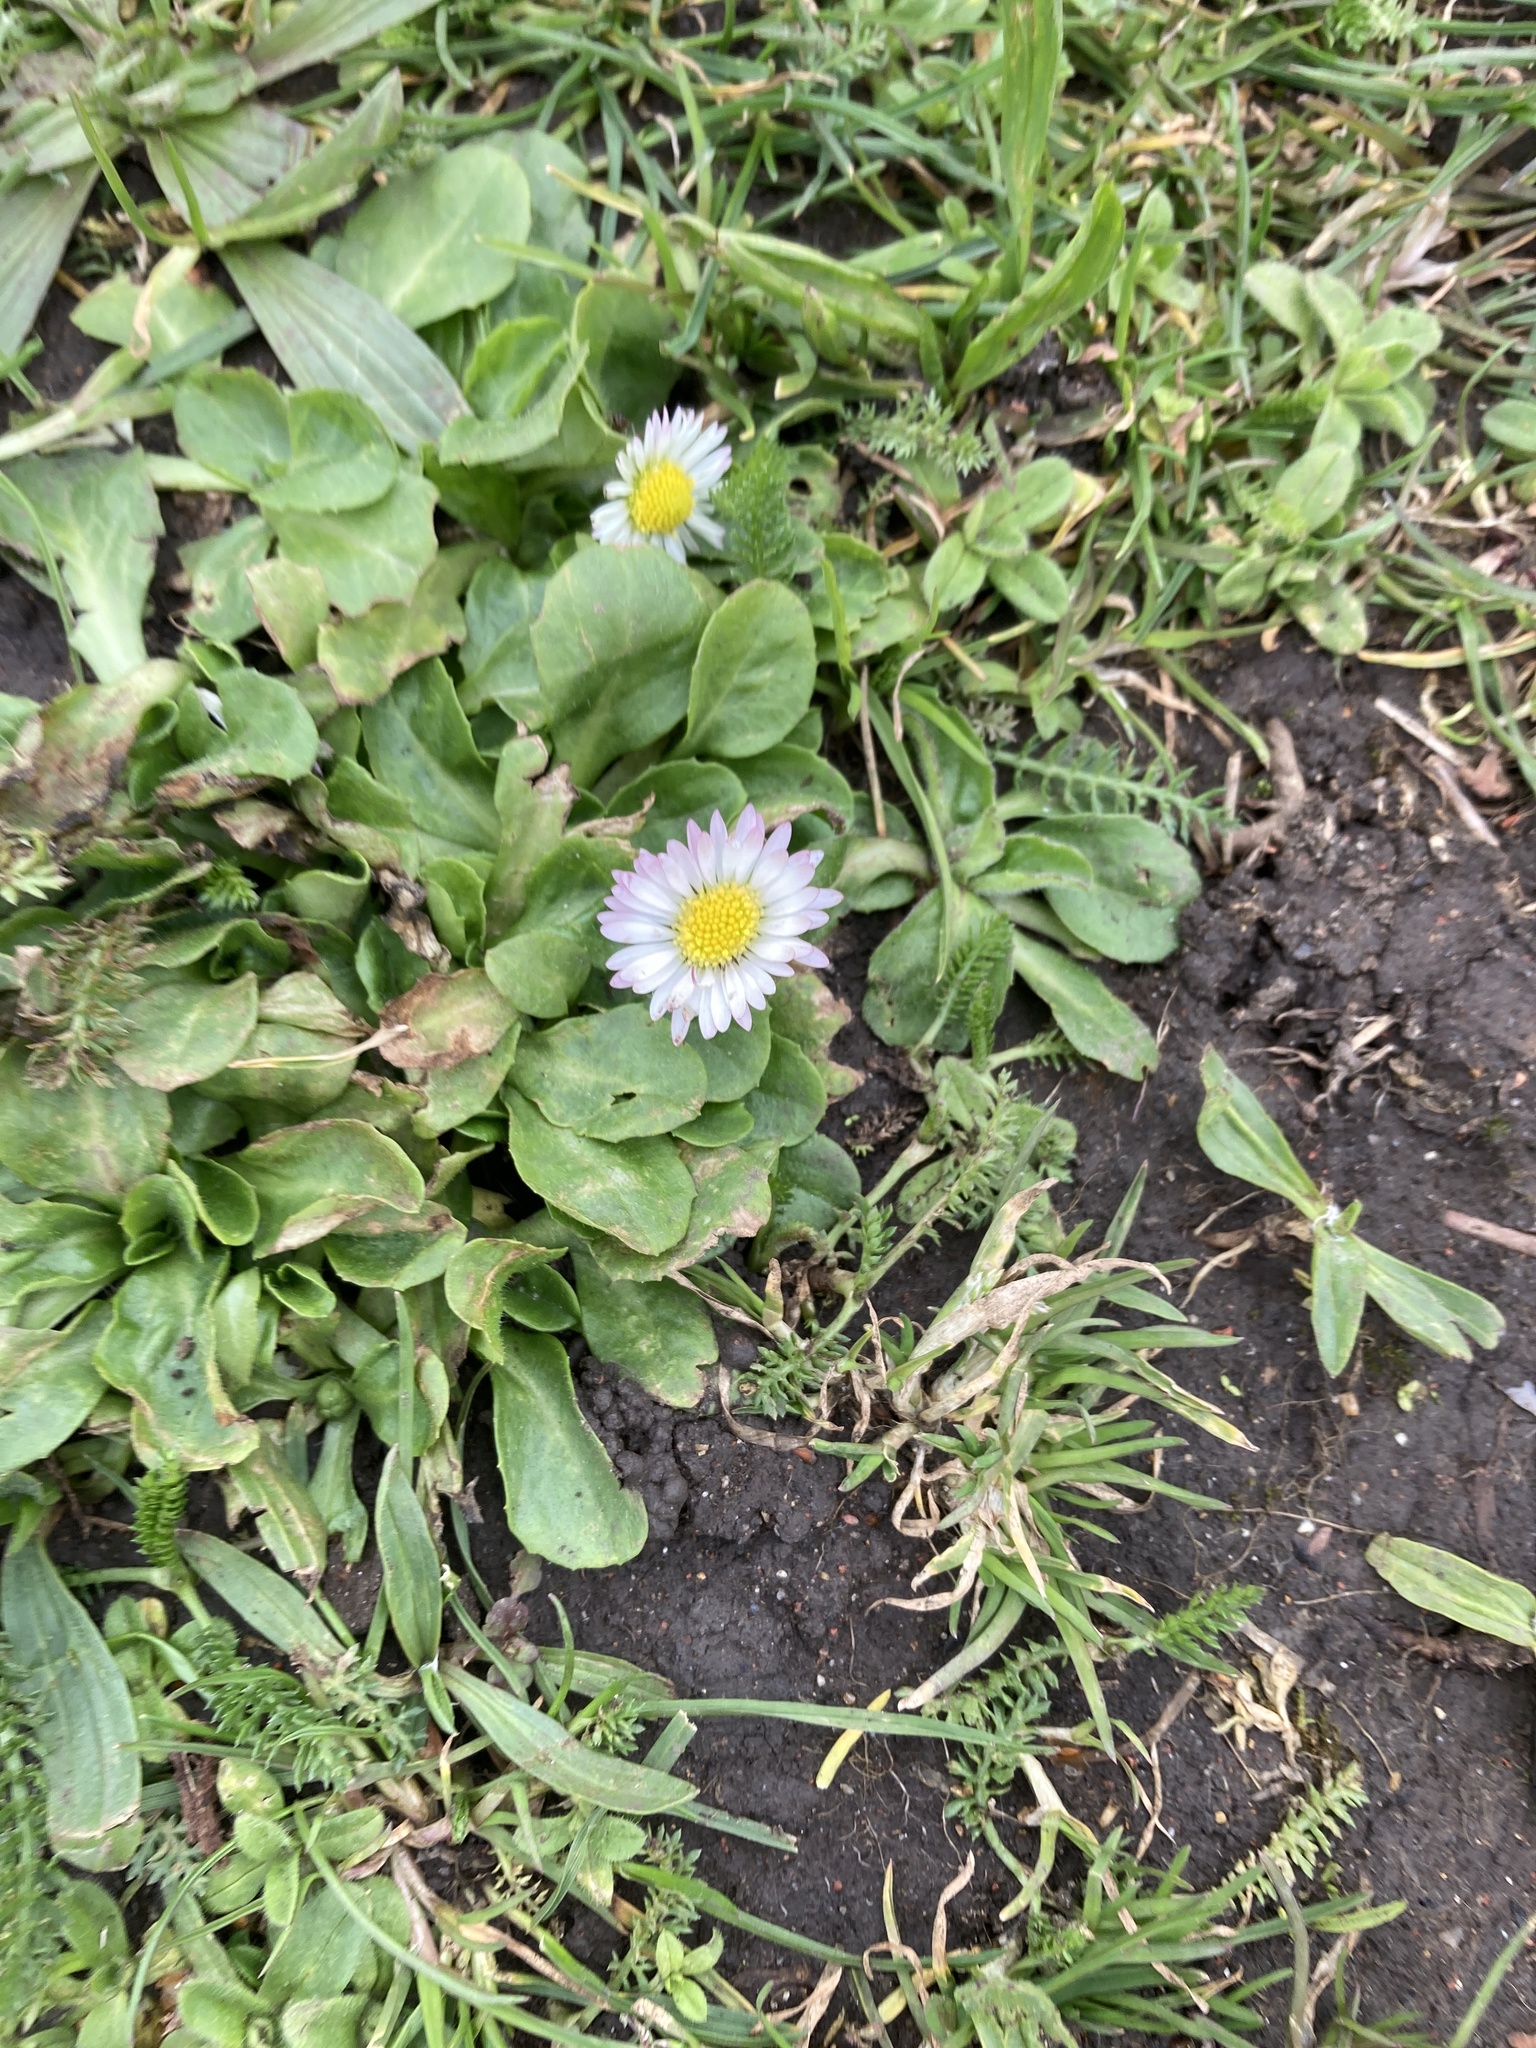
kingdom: Plantae
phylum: Tracheophyta
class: Magnoliopsida
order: Asterales
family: Asteraceae
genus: Bellis
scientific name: Bellis perennis
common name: Lawndaisy
